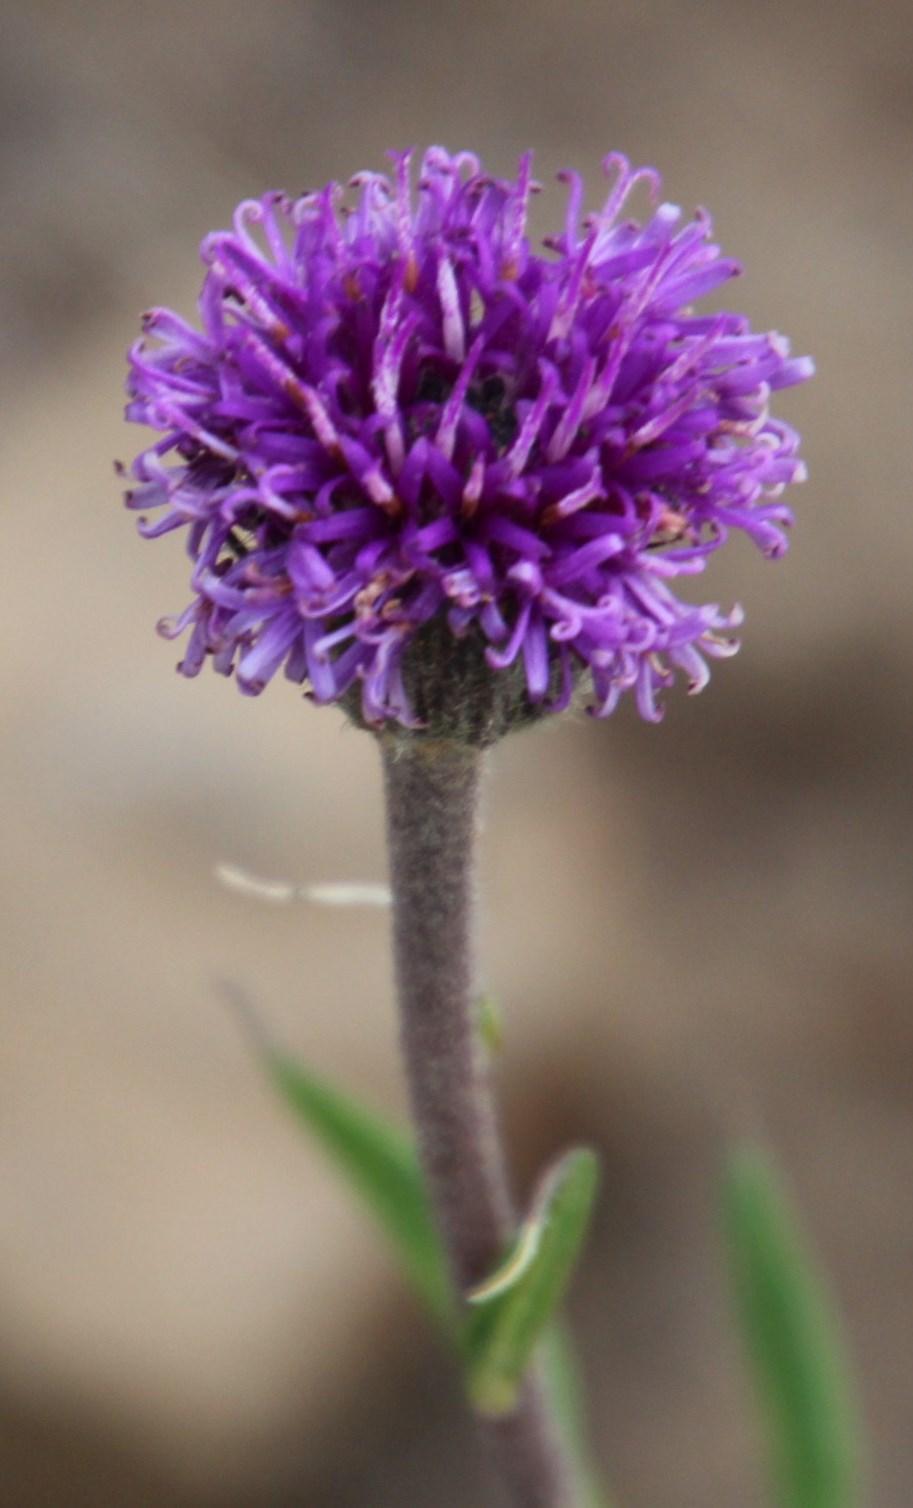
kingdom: Plantae
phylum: Tracheophyta
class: Magnoliopsida
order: Asterales
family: Asteraceae
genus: Pseudopegolettia
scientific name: Pseudopegolettia tenella
